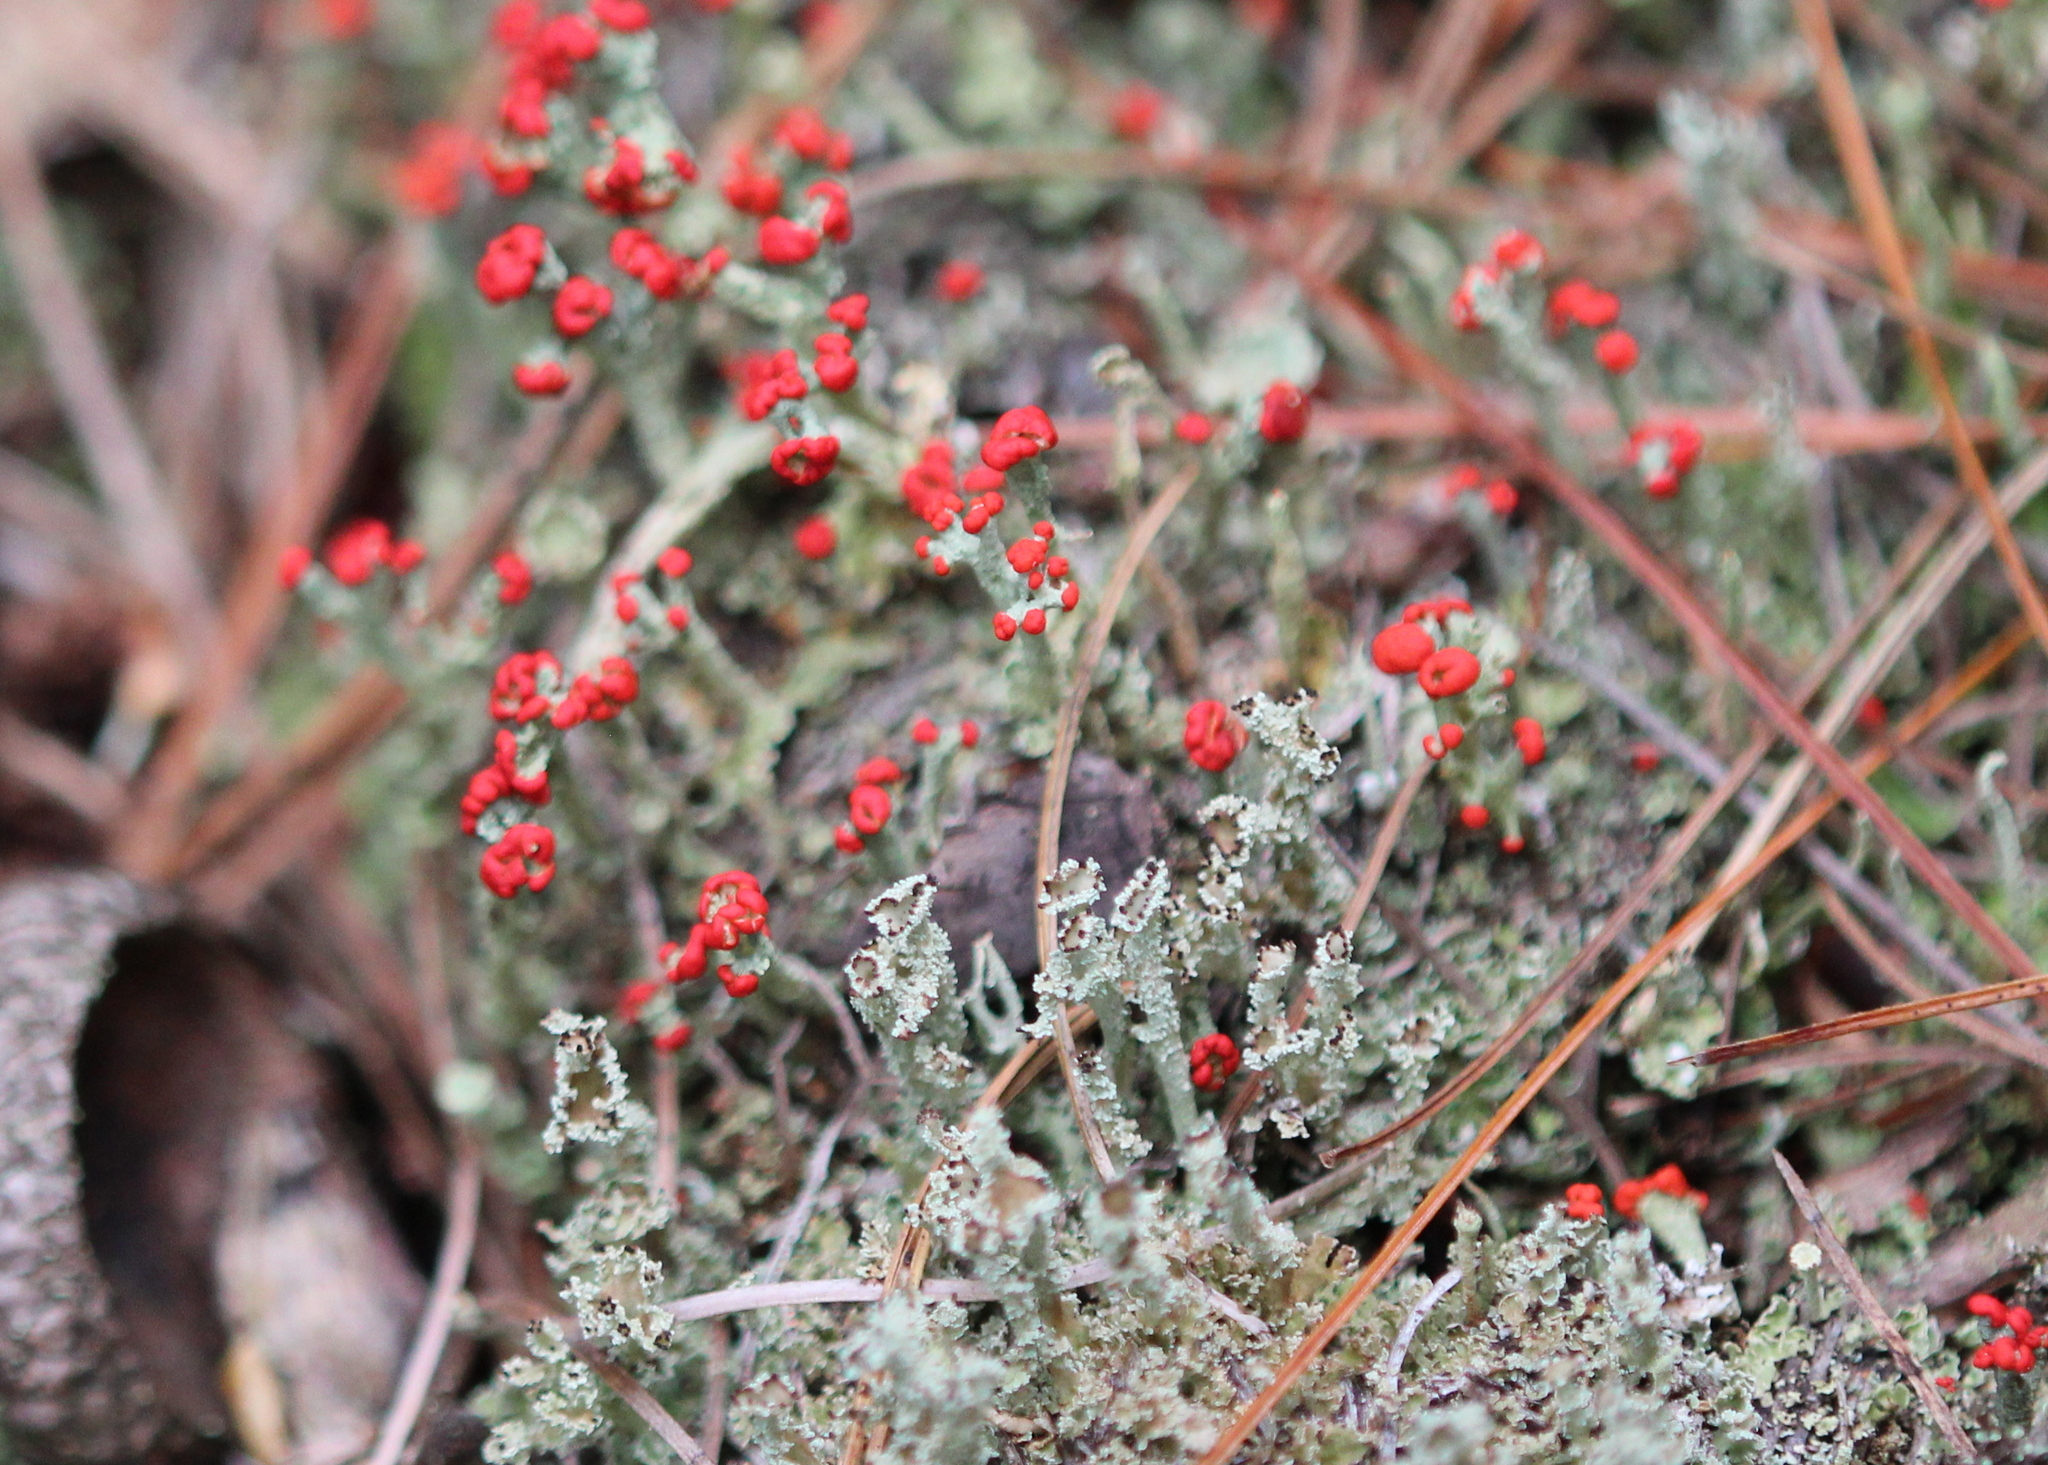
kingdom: Fungi
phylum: Ascomycota
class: Lecanoromycetes
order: Lecanorales
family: Cladoniaceae
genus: Cladonia
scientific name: Cladonia cristatella
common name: British soldier lichen
